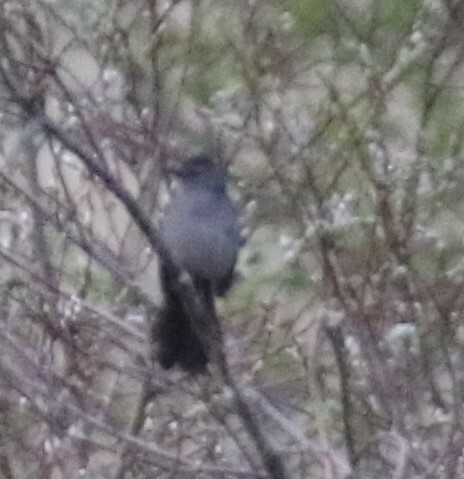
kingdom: Animalia
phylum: Chordata
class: Aves
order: Passeriformes
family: Mimidae
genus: Dumetella
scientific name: Dumetella carolinensis
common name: Gray catbird
